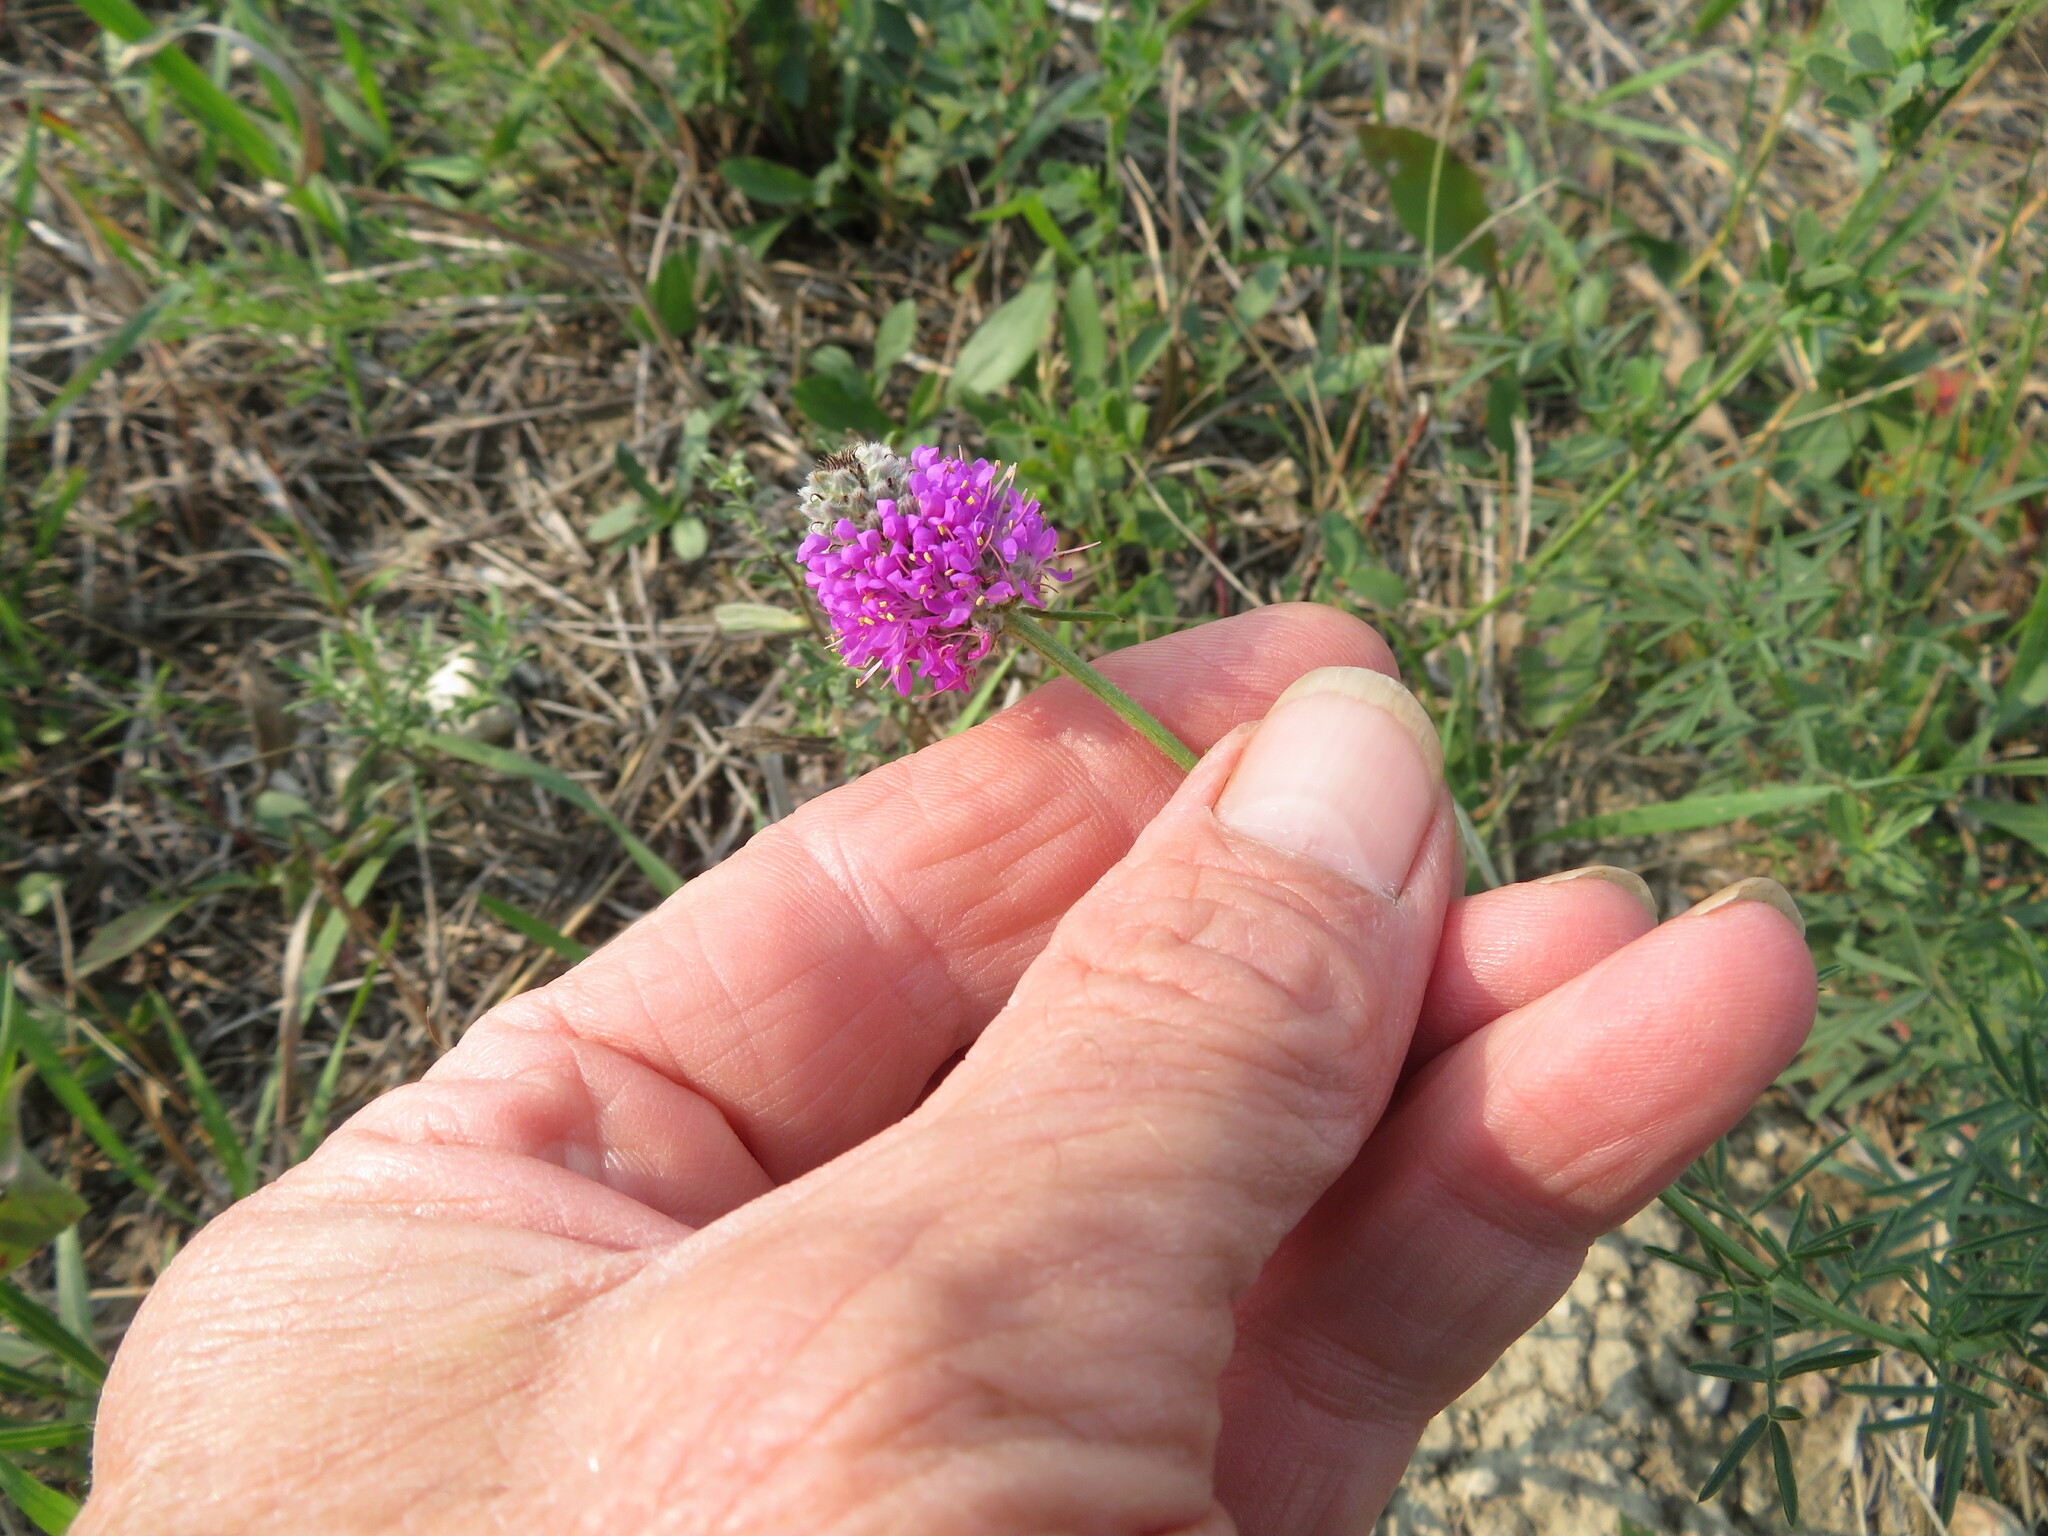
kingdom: Plantae
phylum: Tracheophyta
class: Magnoliopsida
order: Fabales
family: Fabaceae
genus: Dalea
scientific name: Dalea purpurea
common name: Purple prairie-clover
